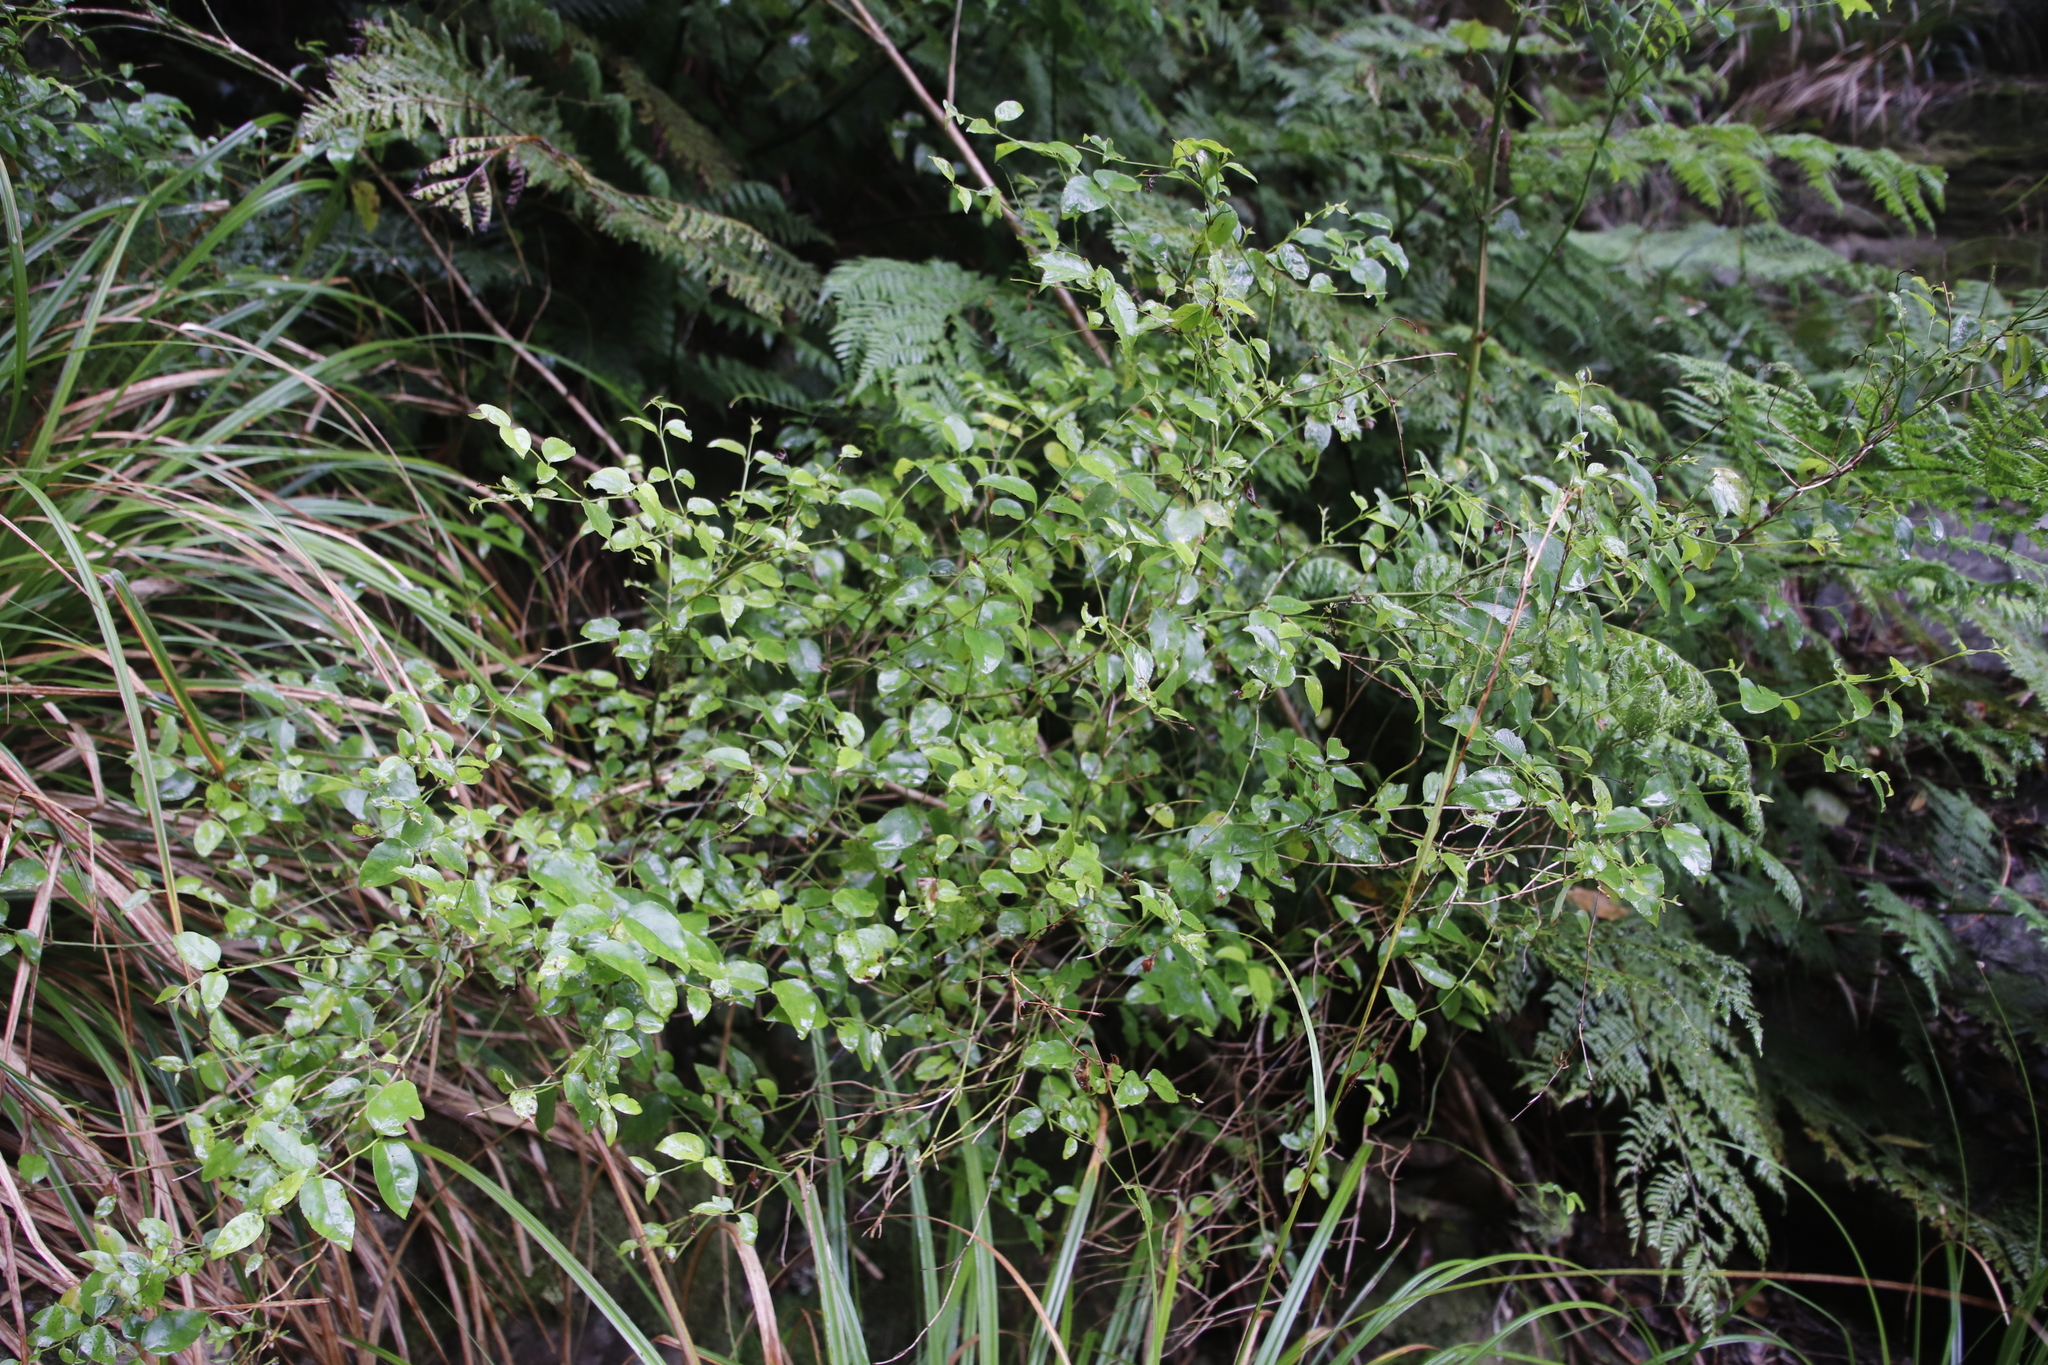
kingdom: Plantae
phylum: Tracheophyta
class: Magnoliopsida
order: Lamiales
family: Stilbaceae
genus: Halleria
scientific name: Halleria lucida
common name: Tree fuschia
